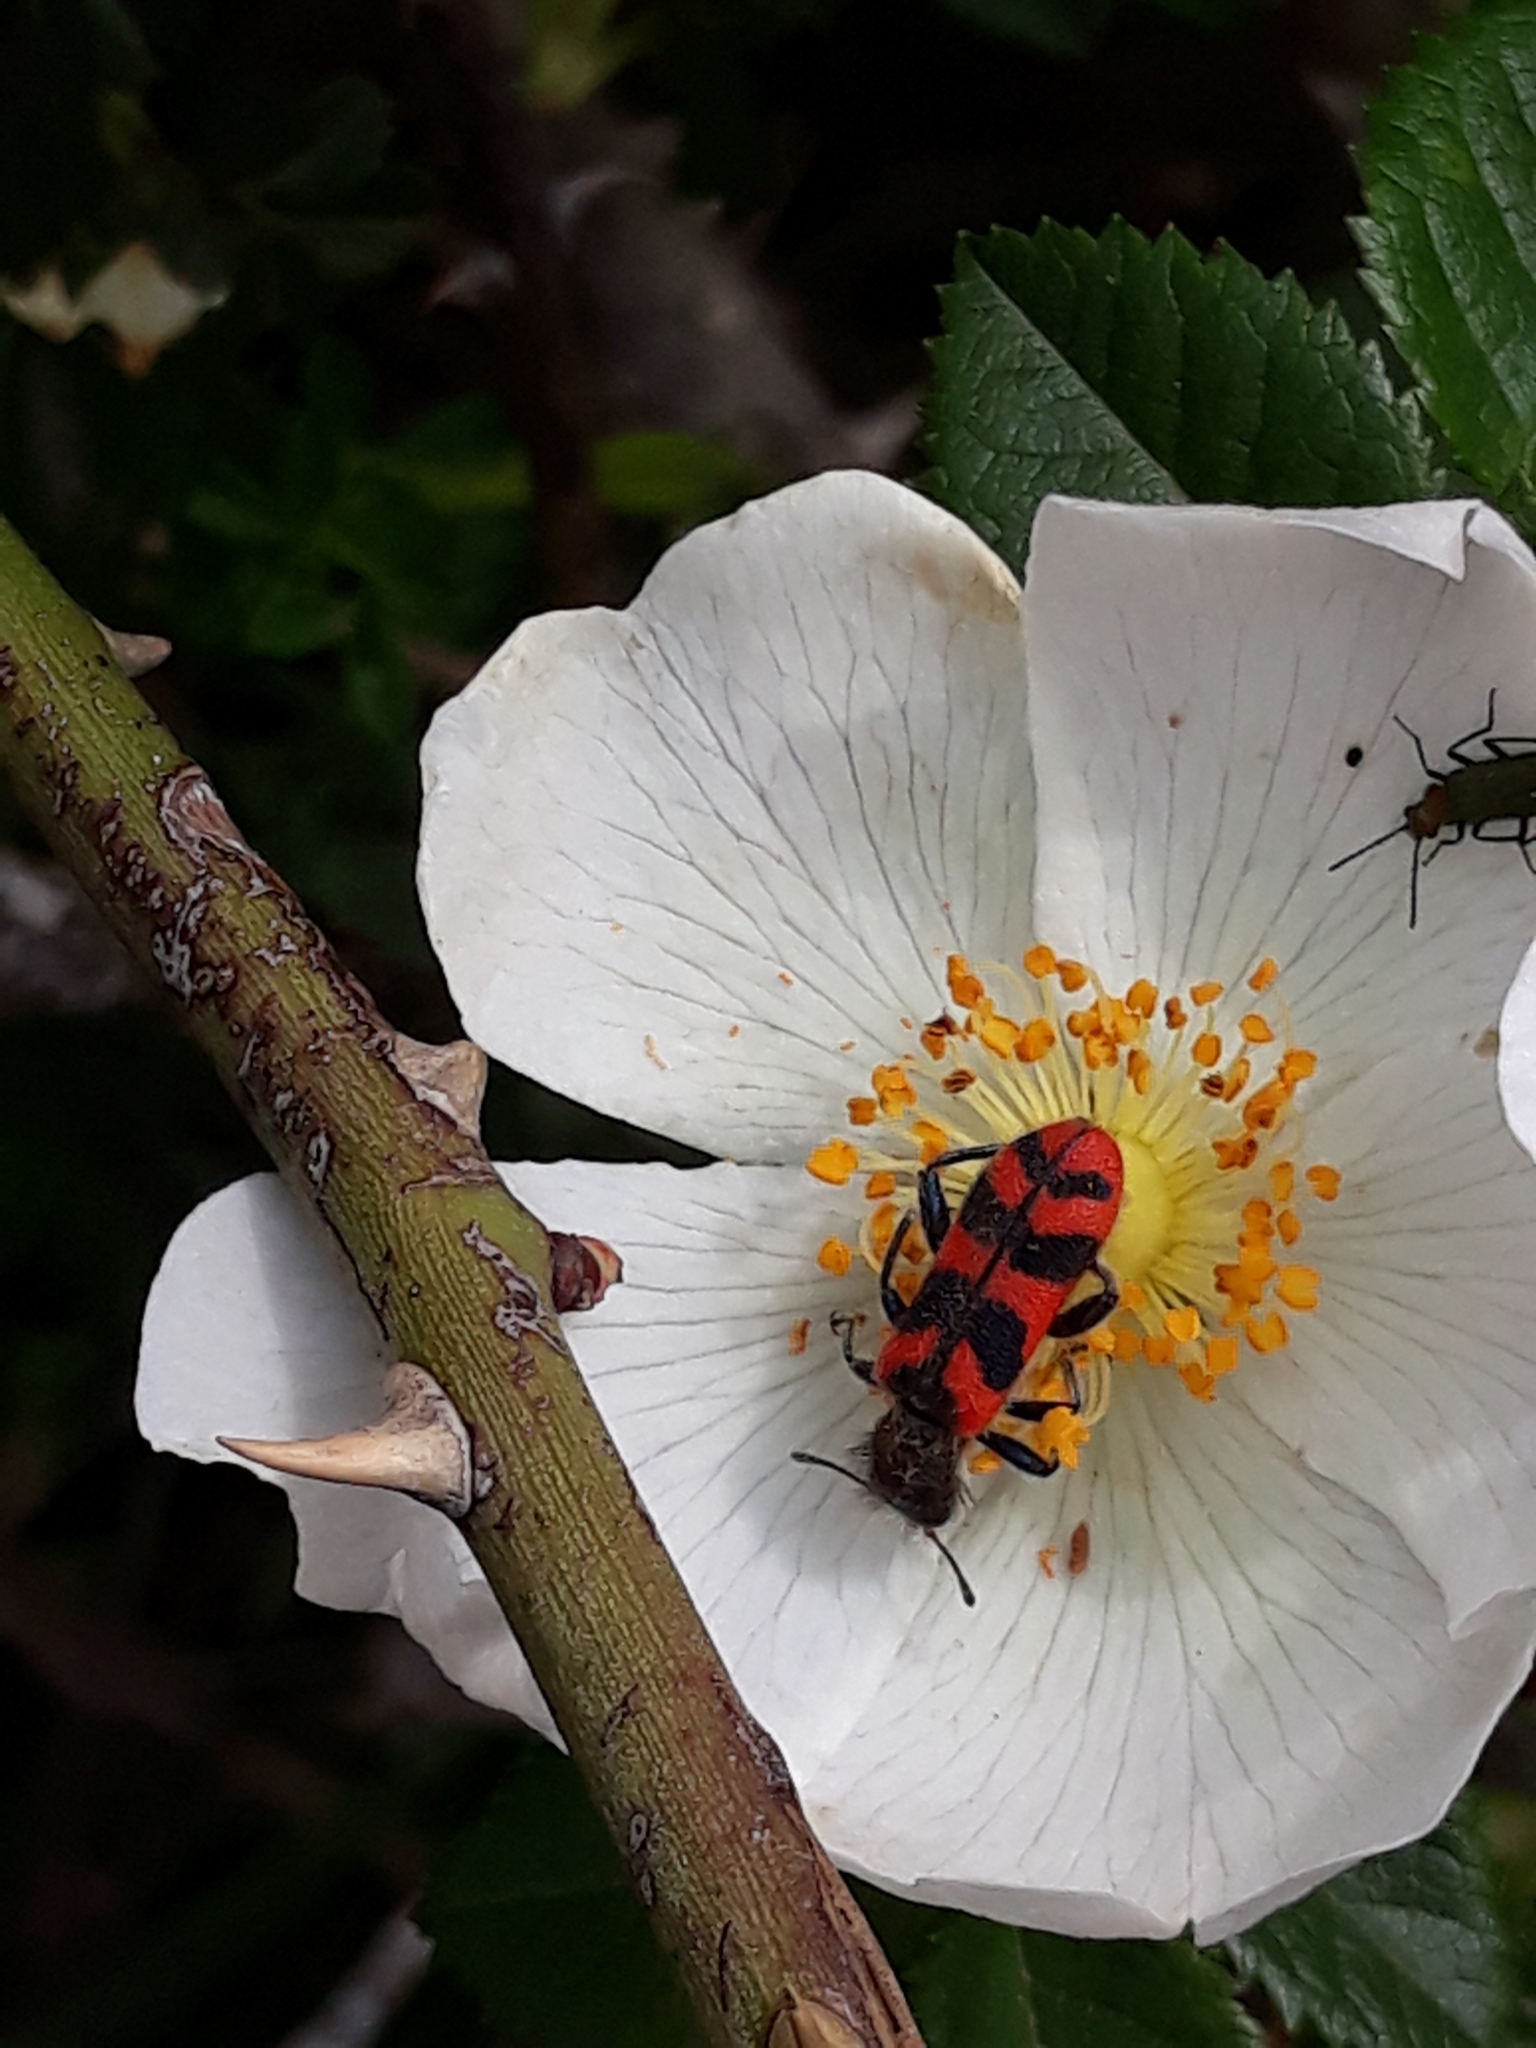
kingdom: Animalia
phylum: Arthropoda
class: Insecta
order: Coleoptera
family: Cleridae
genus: Trichodes
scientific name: Trichodes umbellatarum
